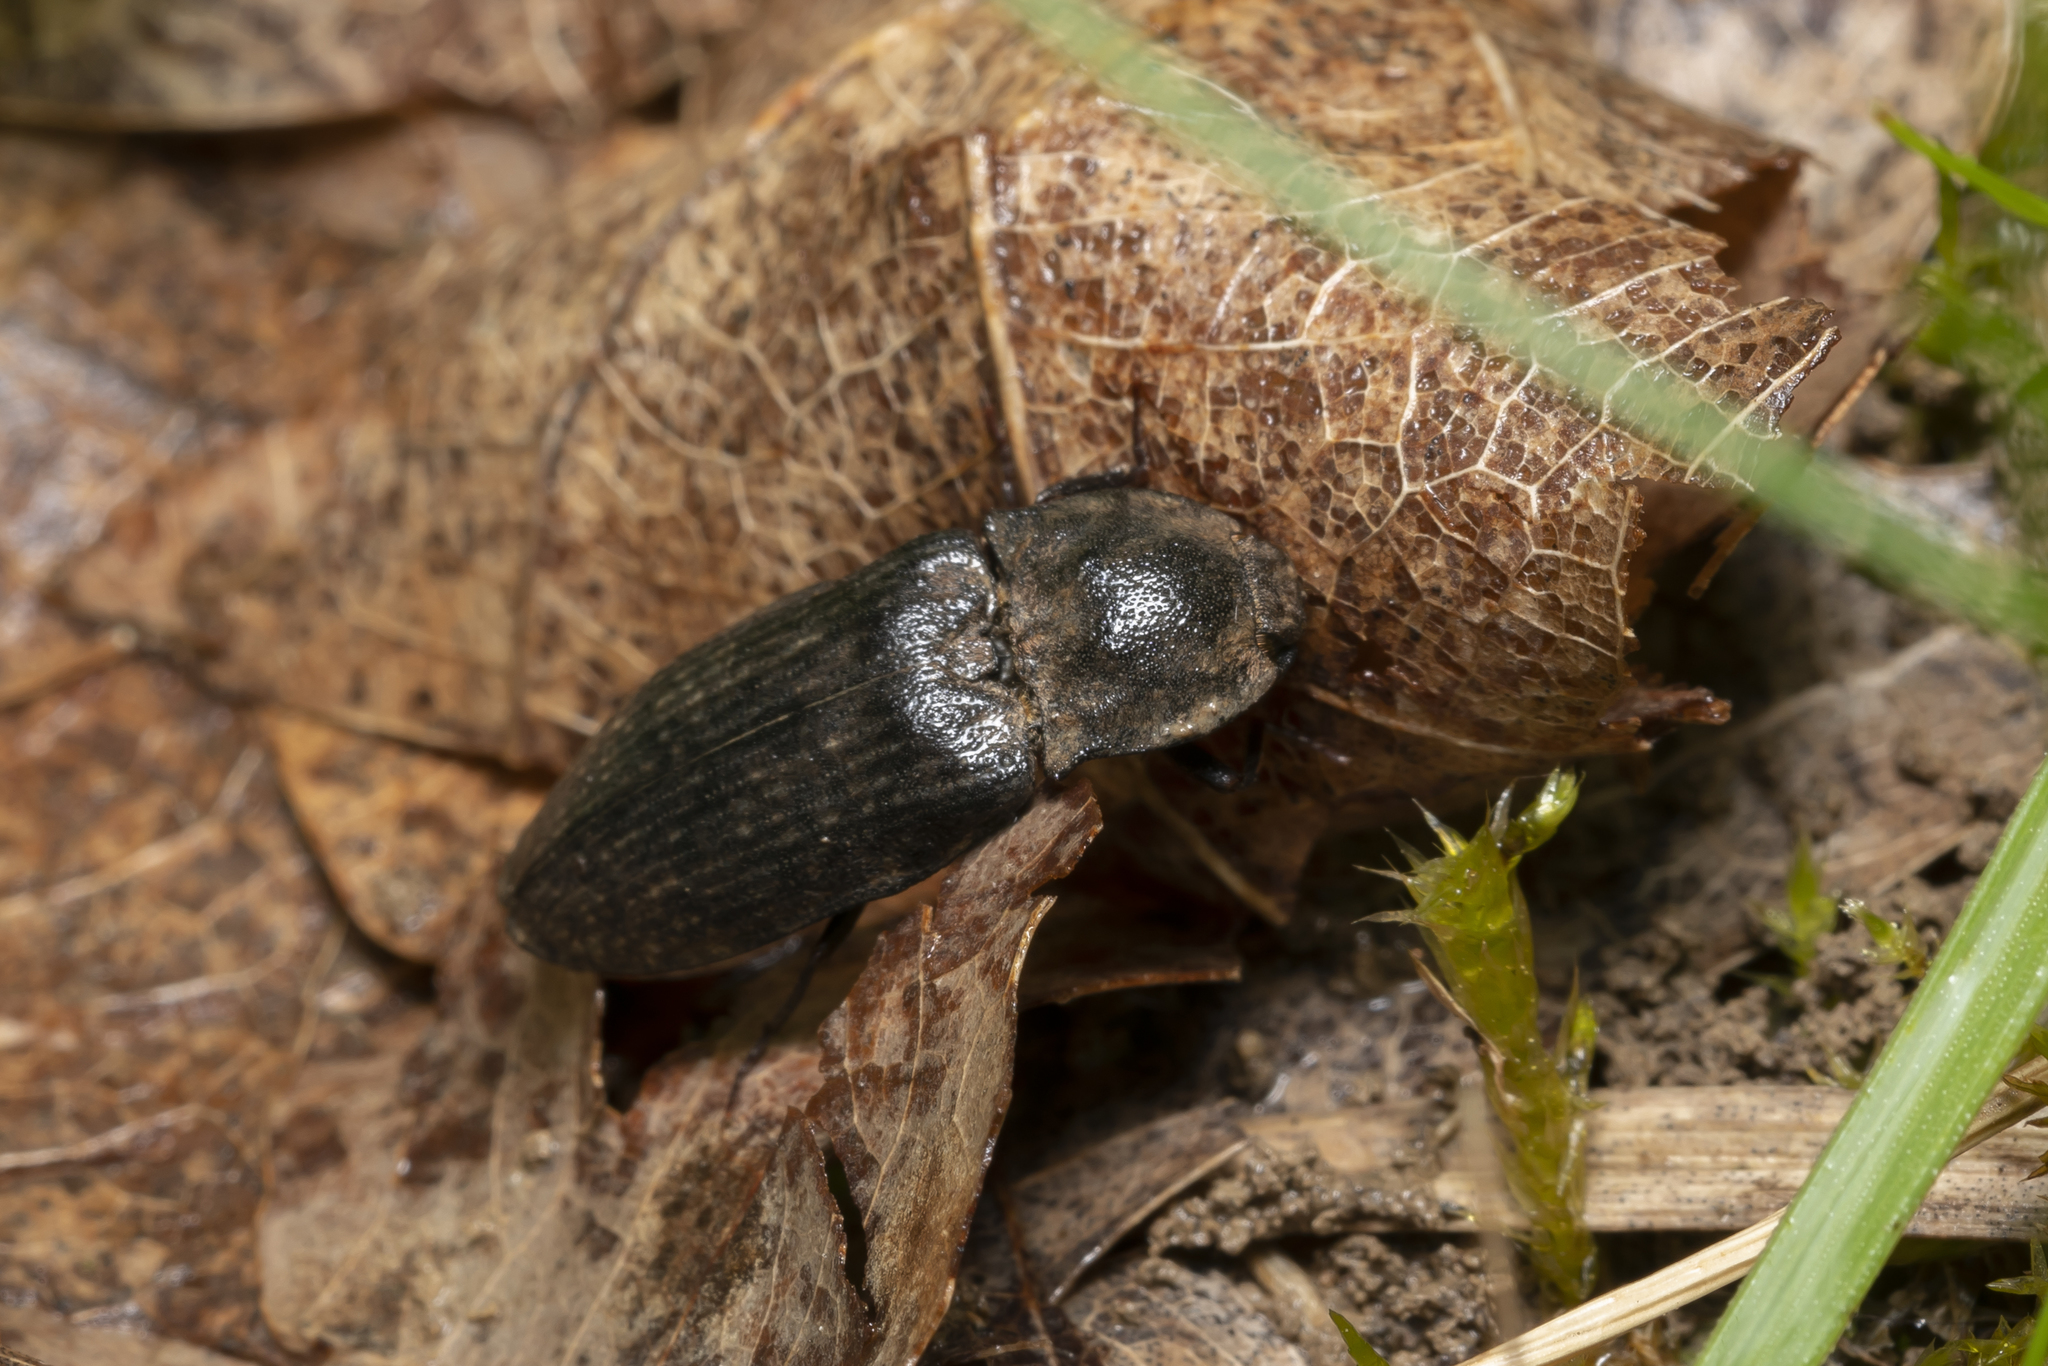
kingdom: Animalia
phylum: Arthropoda
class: Insecta
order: Coleoptera
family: Elateridae
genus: Agrypnus
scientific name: Agrypnus murinus
